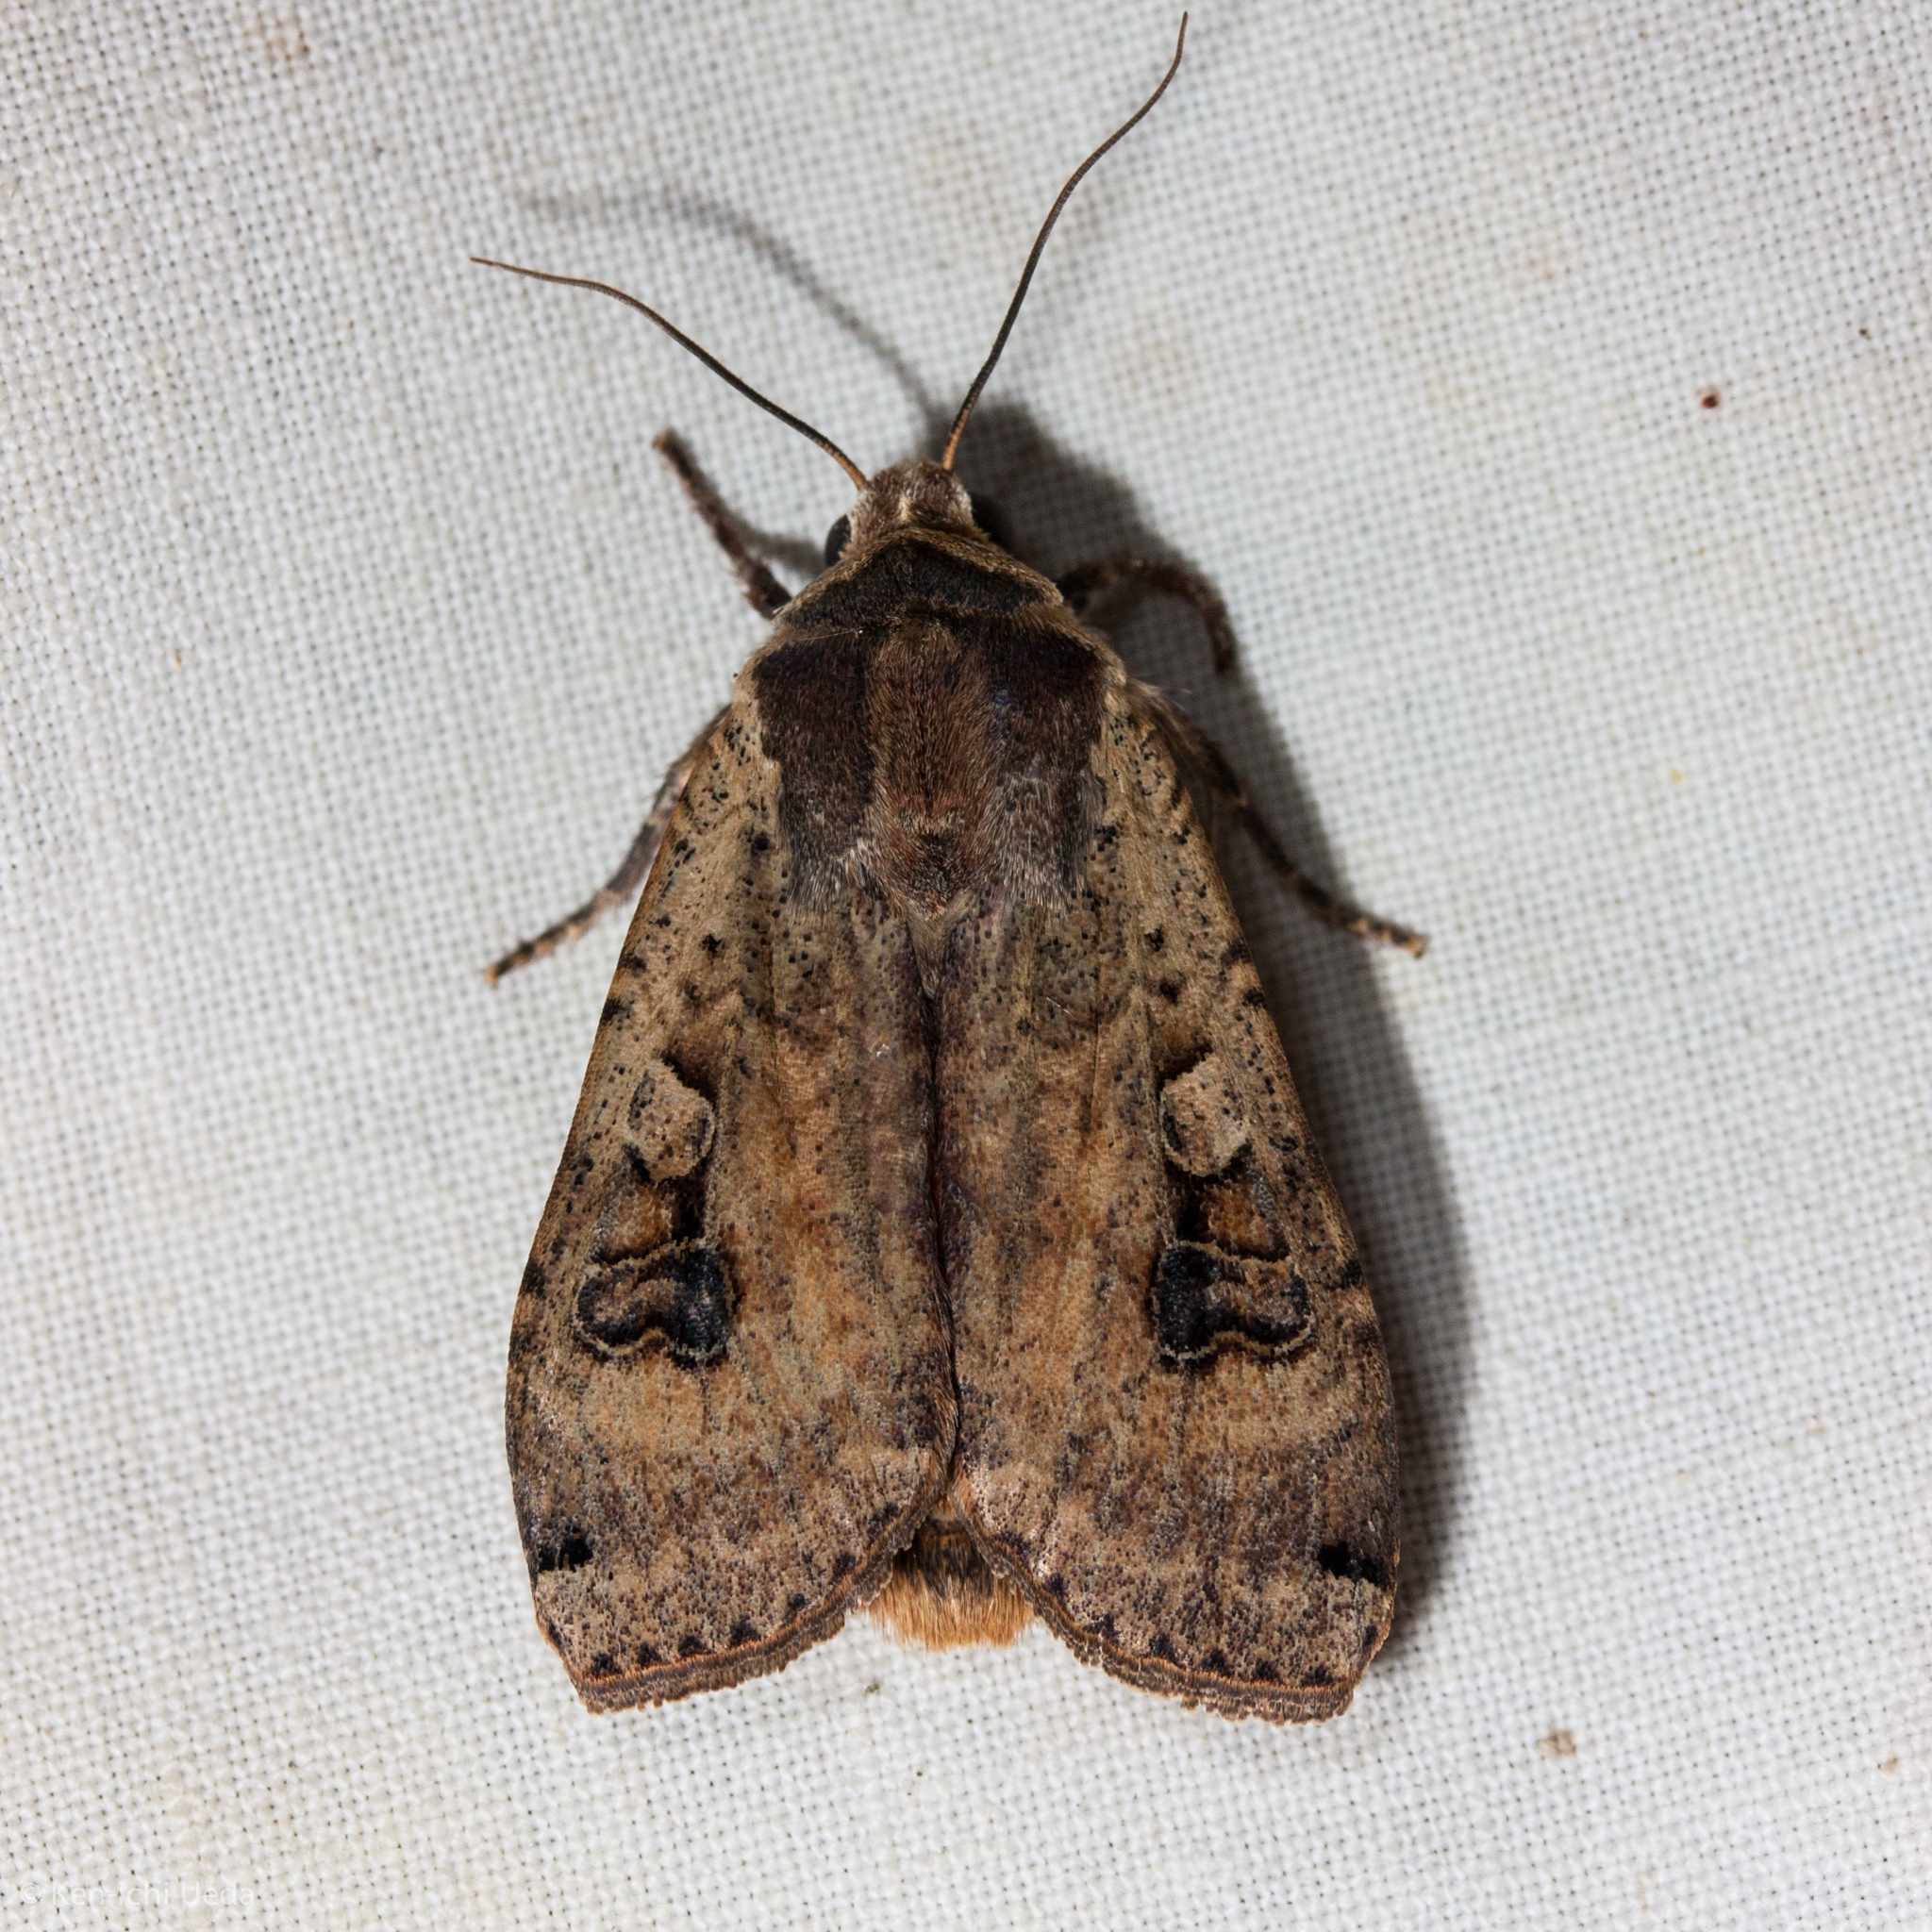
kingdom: Animalia
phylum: Arthropoda
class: Insecta
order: Lepidoptera
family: Noctuidae
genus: Noctua
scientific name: Noctua pronuba
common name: Large yellow underwing
